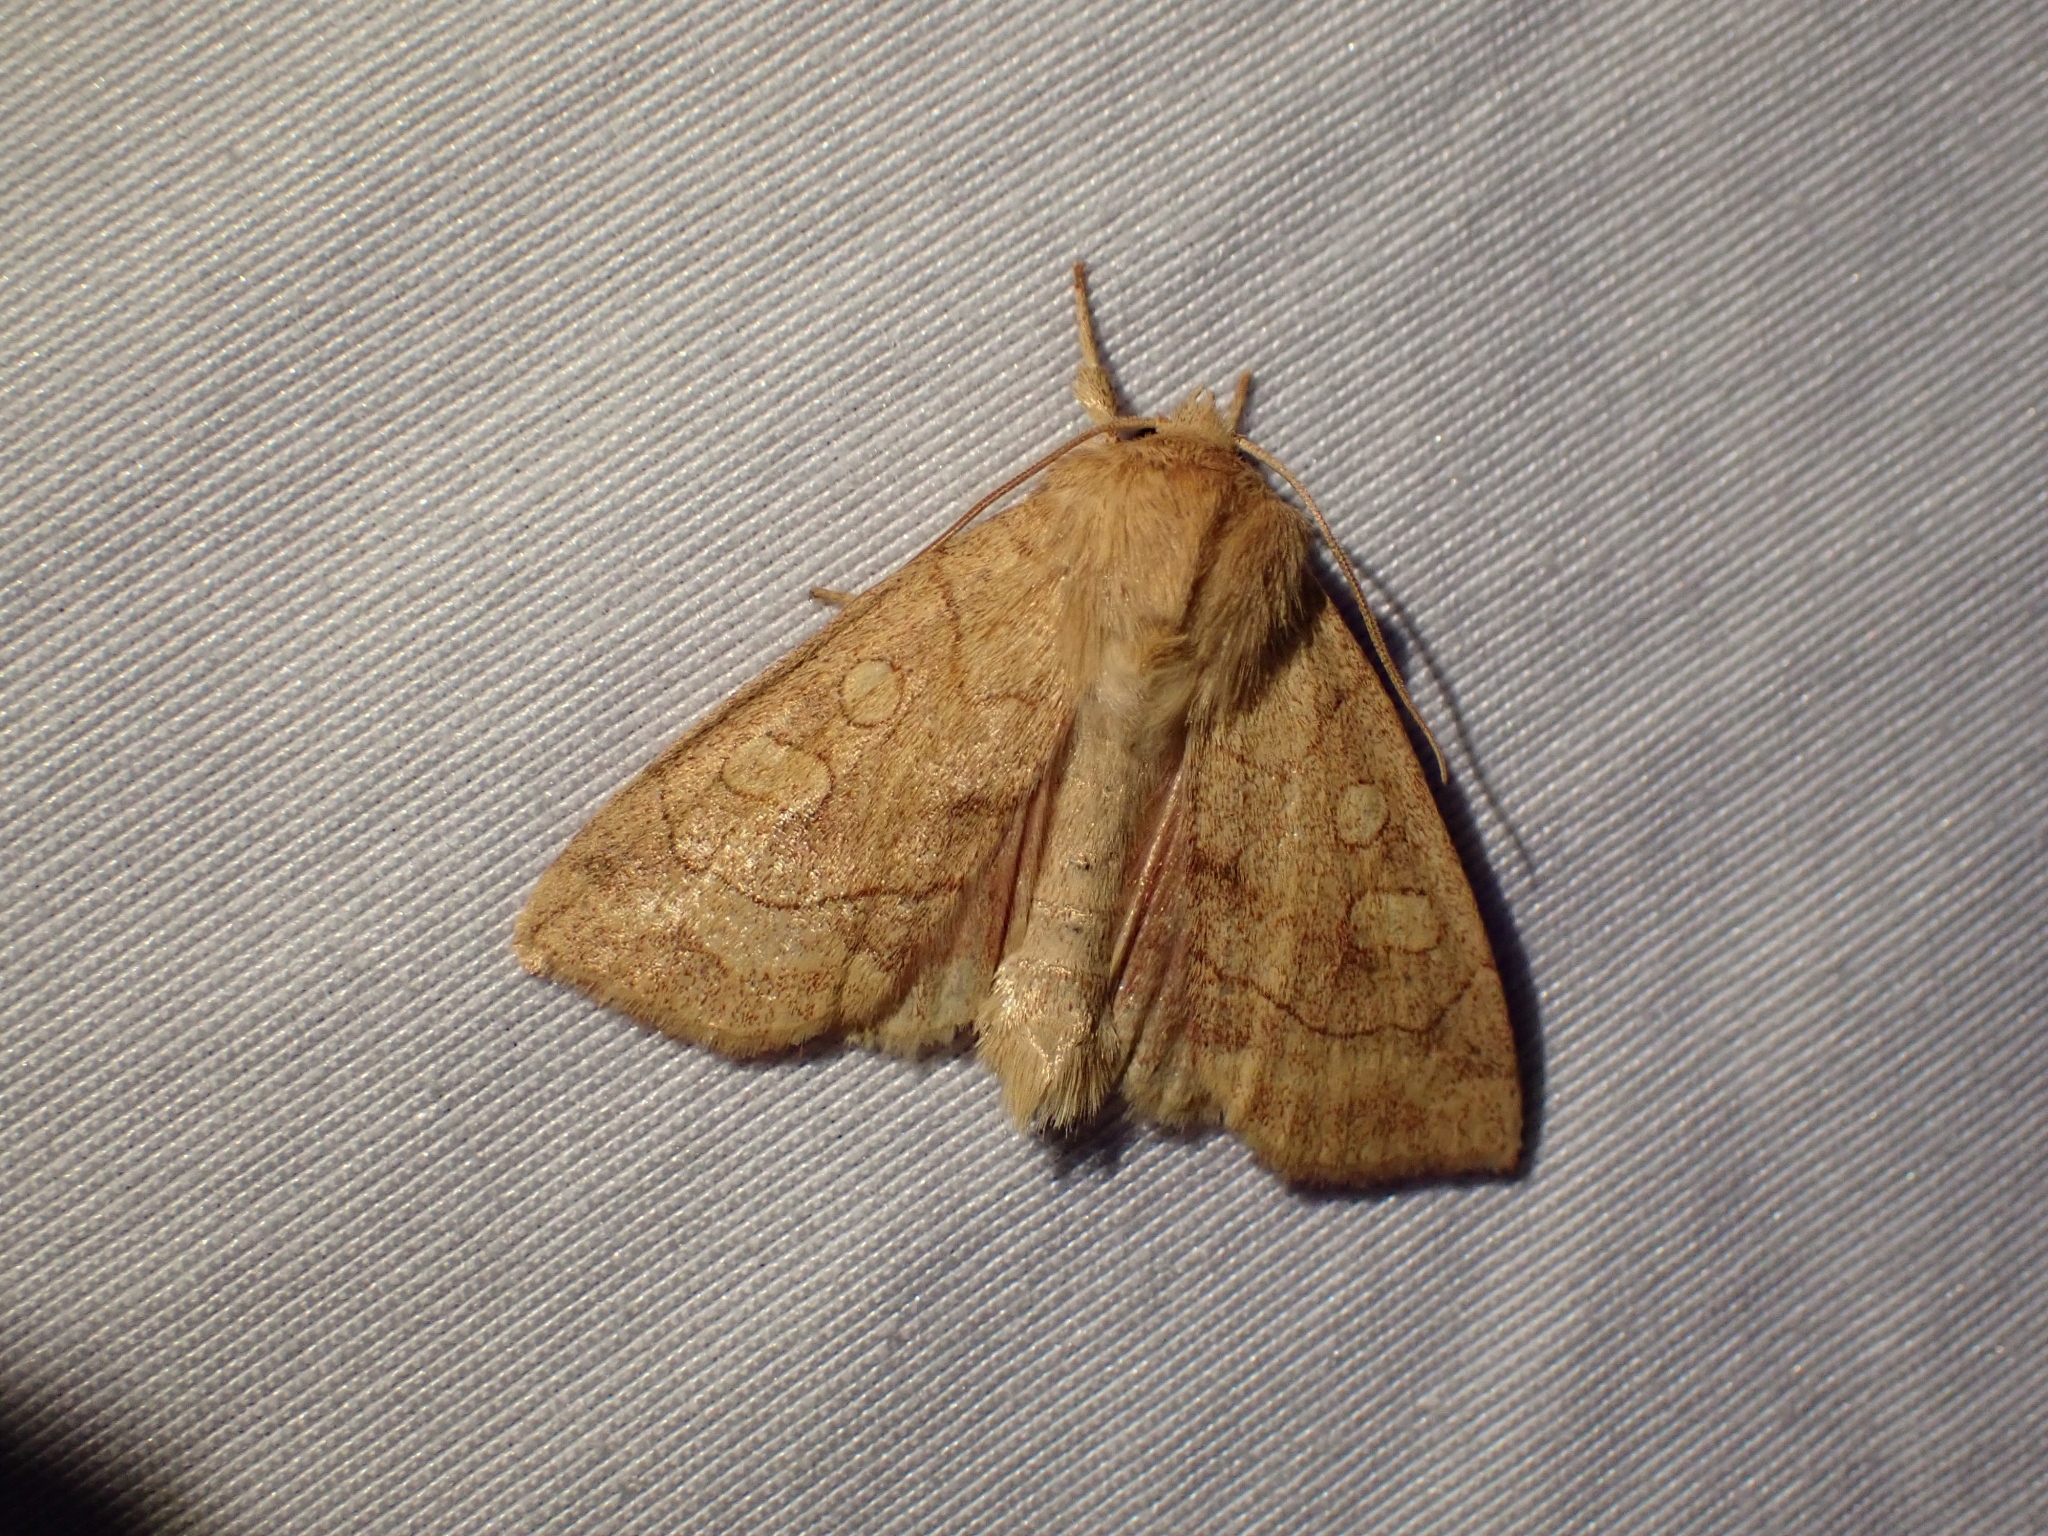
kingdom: Animalia
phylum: Arthropoda
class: Insecta
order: Lepidoptera
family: Noctuidae
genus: Enargia
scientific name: Enargia decolor
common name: Aspen twoleaf tier moth
